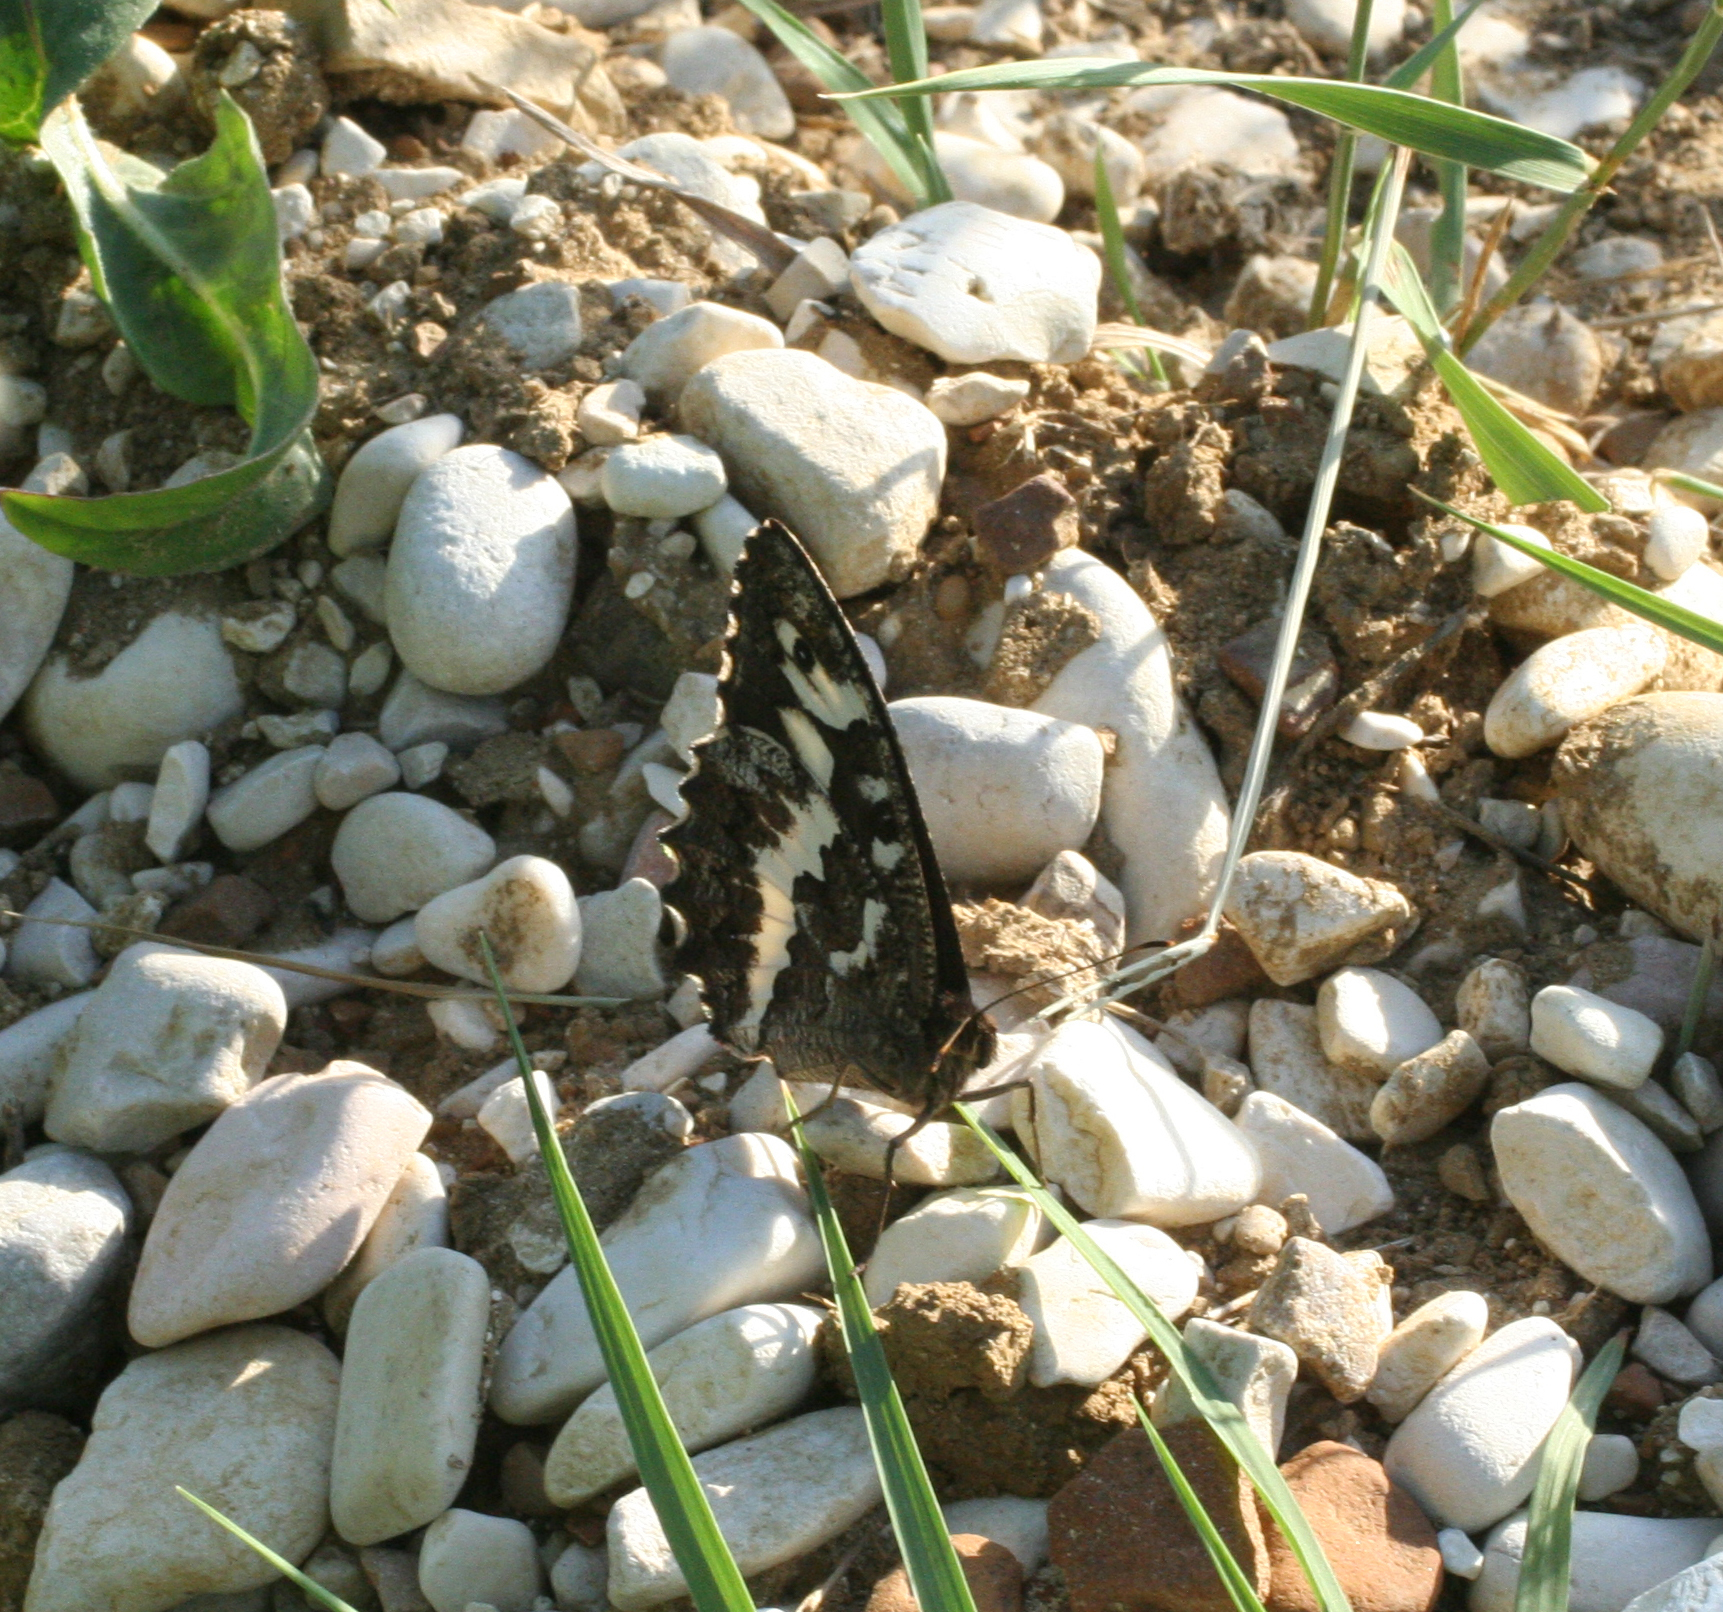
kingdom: Animalia
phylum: Arthropoda
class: Insecta
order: Lepidoptera
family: Lycaenidae
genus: Loweia
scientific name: Loweia tityrus
